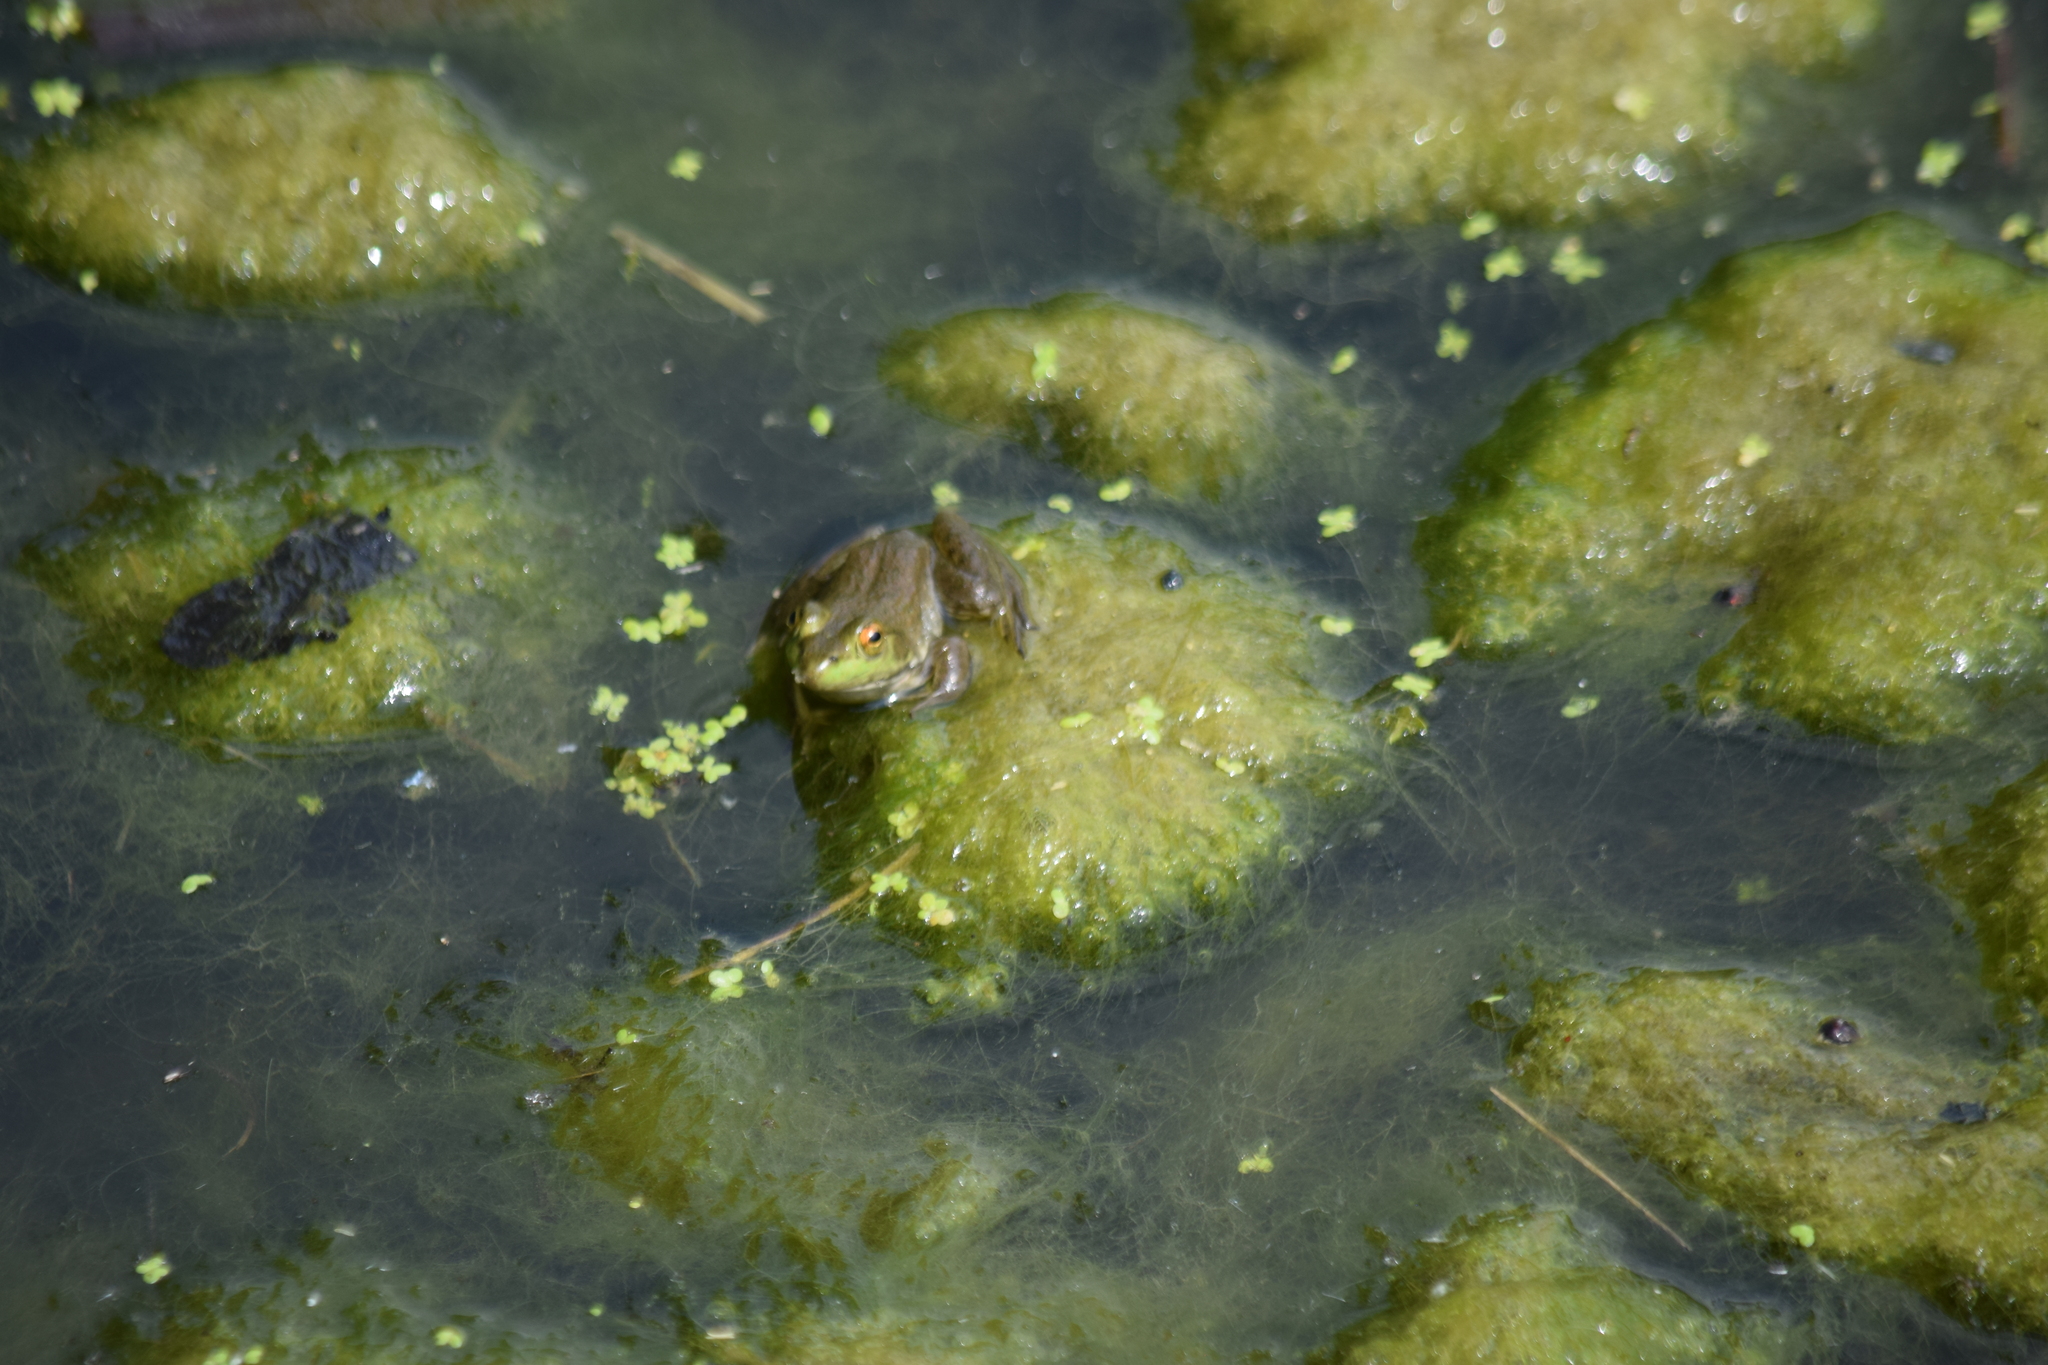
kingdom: Animalia
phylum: Chordata
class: Amphibia
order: Anura
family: Ranidae
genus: Lithobates
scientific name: Lithobates catesbeianus
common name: American bullfrog
